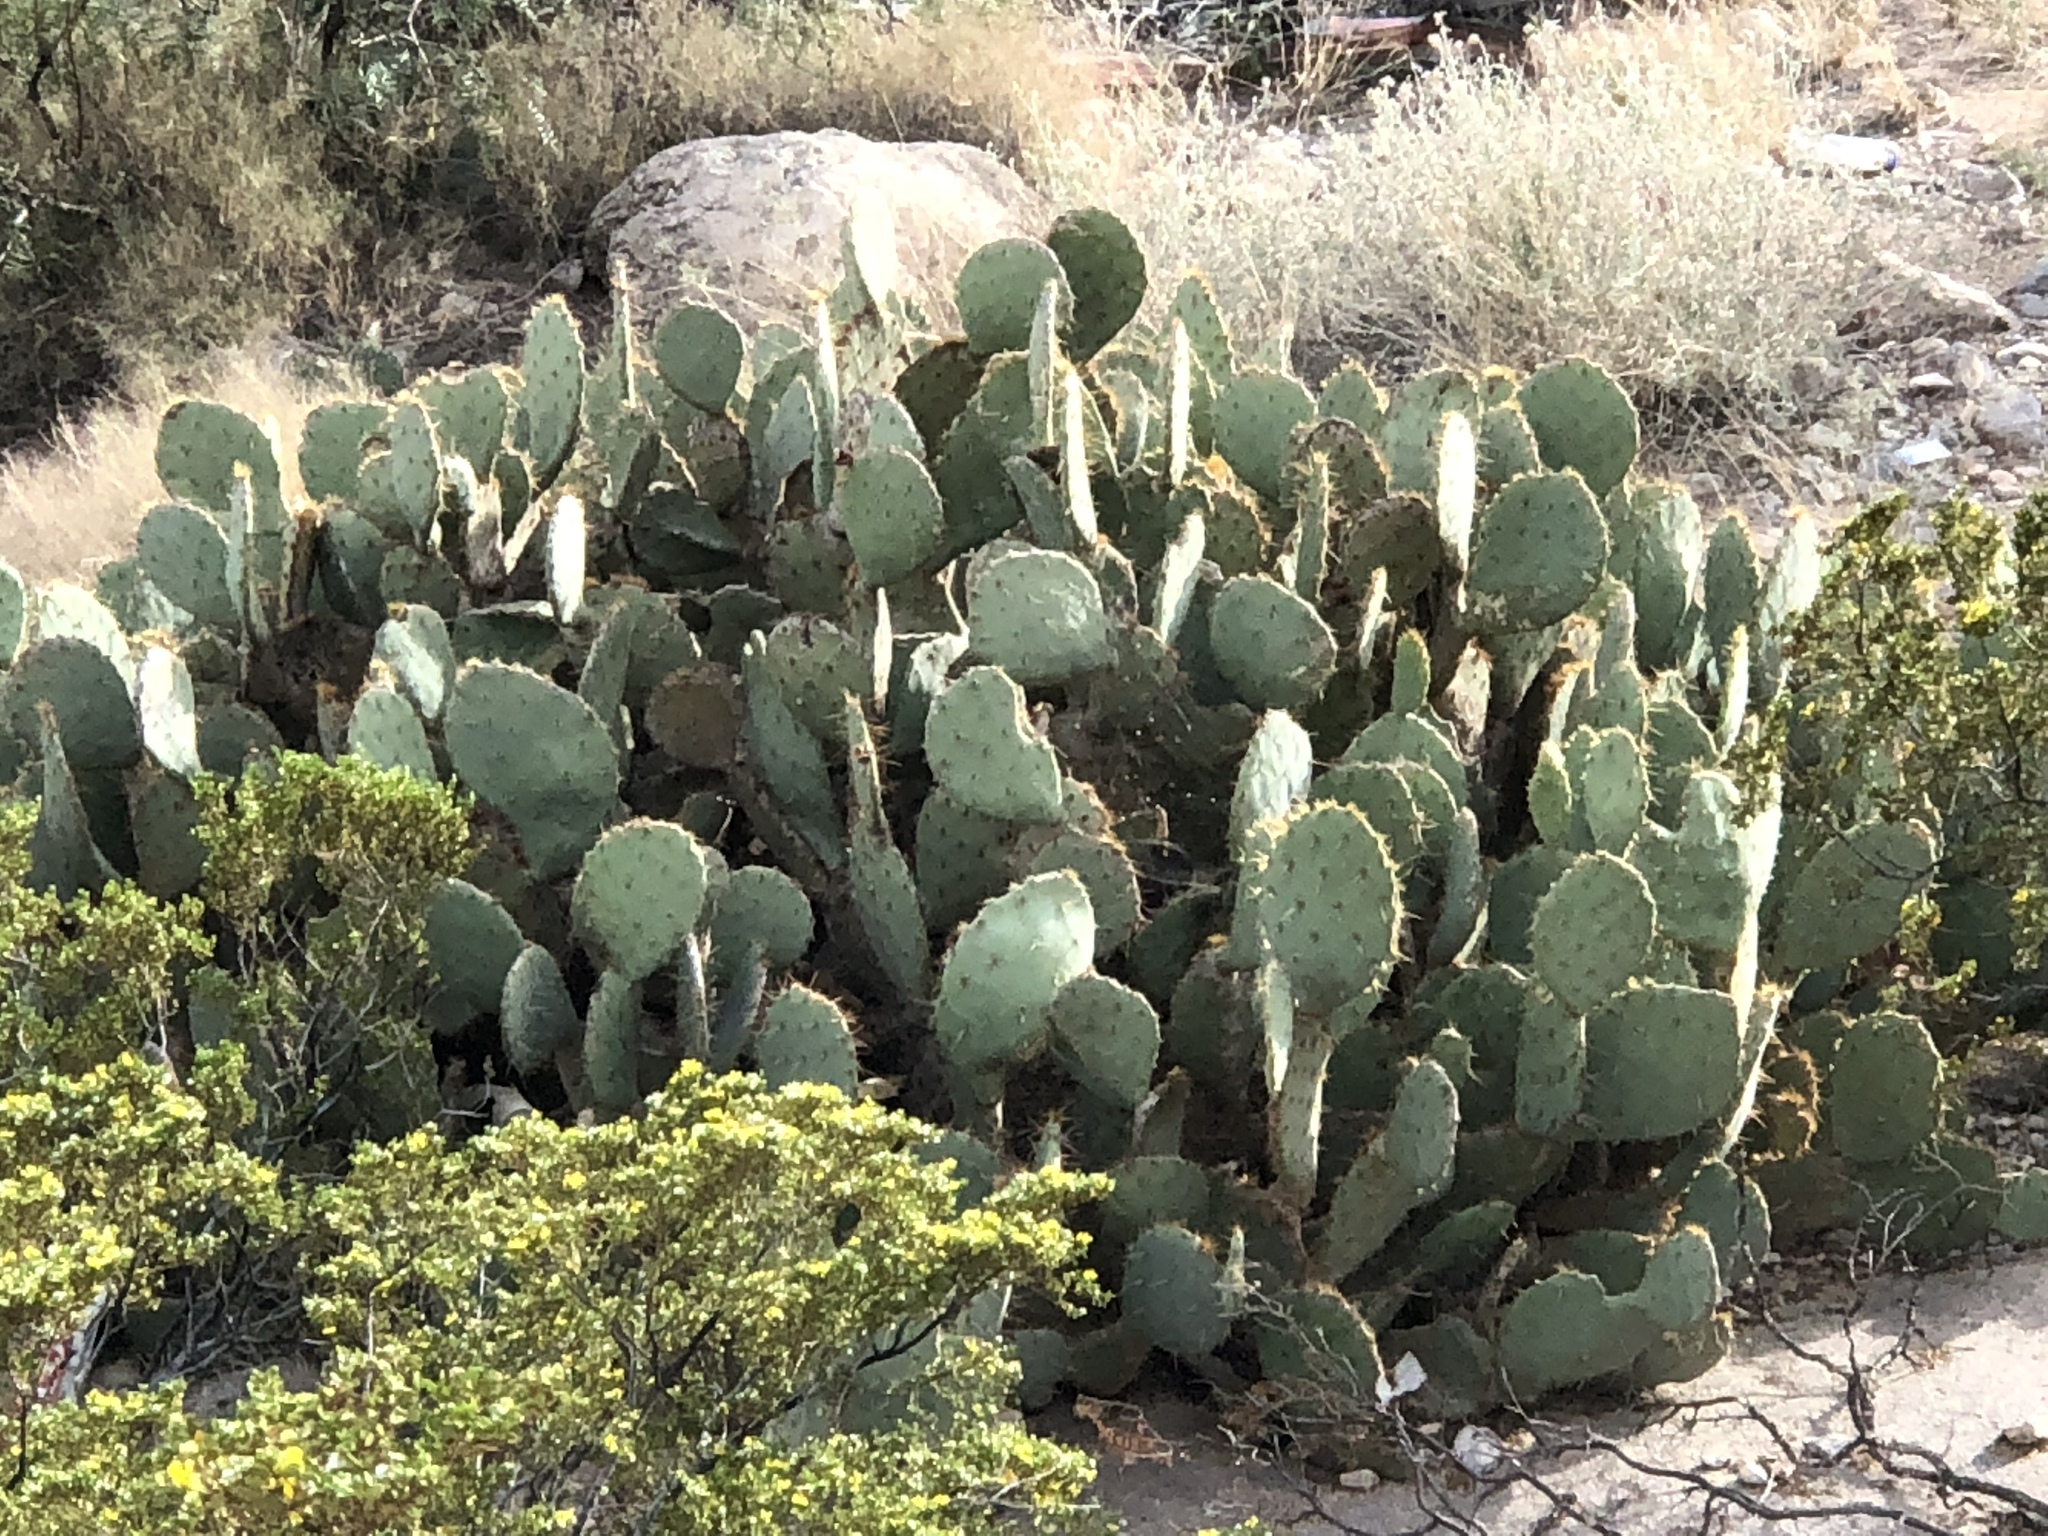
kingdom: Plantae
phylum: Tracheophyta
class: Magnoliopsida
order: Caryophyllales
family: Cactaceae
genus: Opuntia
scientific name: Opuntia engelmannii
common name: Cactus-apple
